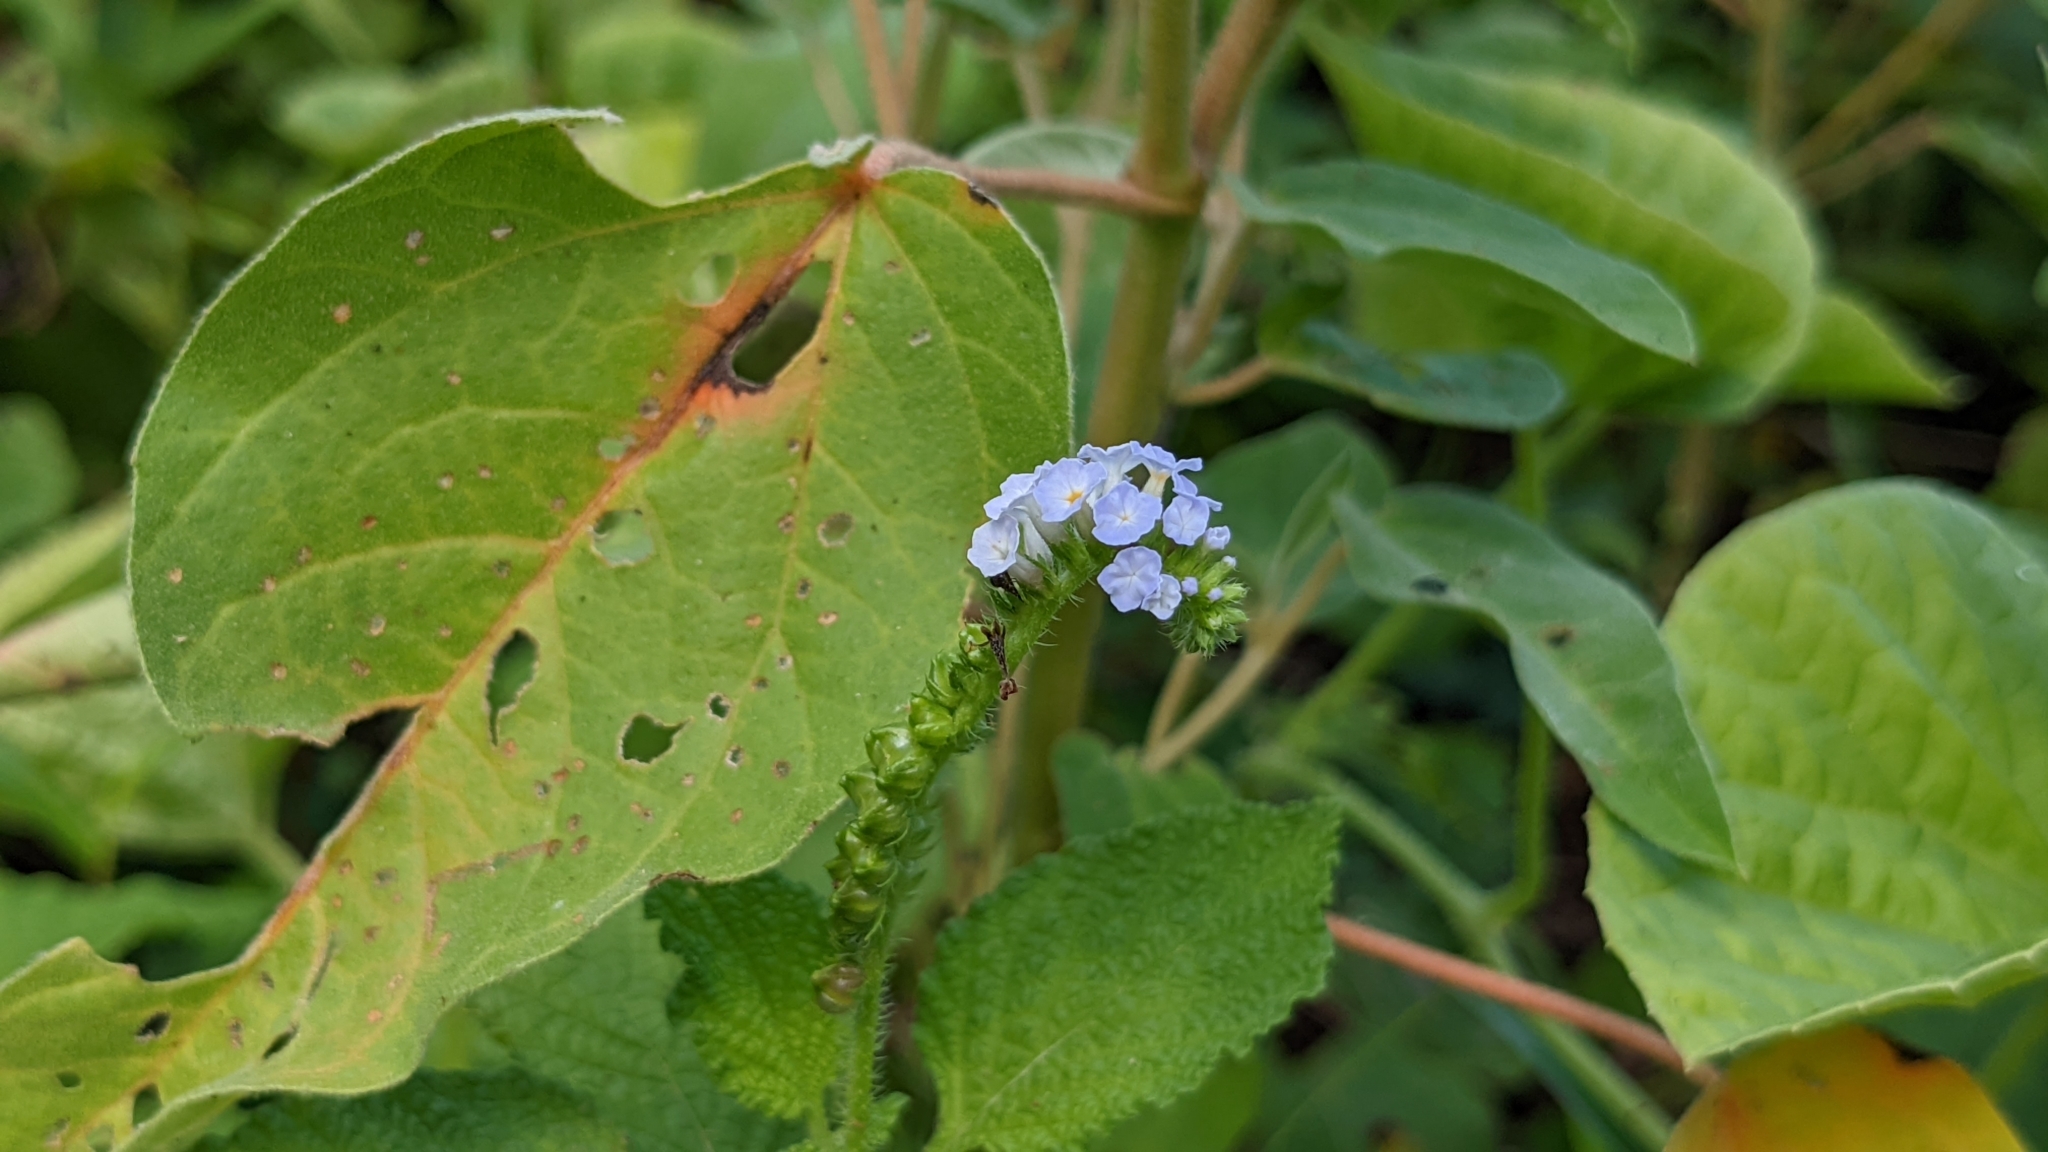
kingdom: Plantae
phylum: Tracheophyta
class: Magnoliopsida
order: Boraginales
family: Heliotropiaceae
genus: Heliotropium
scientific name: Heliotropium indicum
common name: Indian heliotrope
